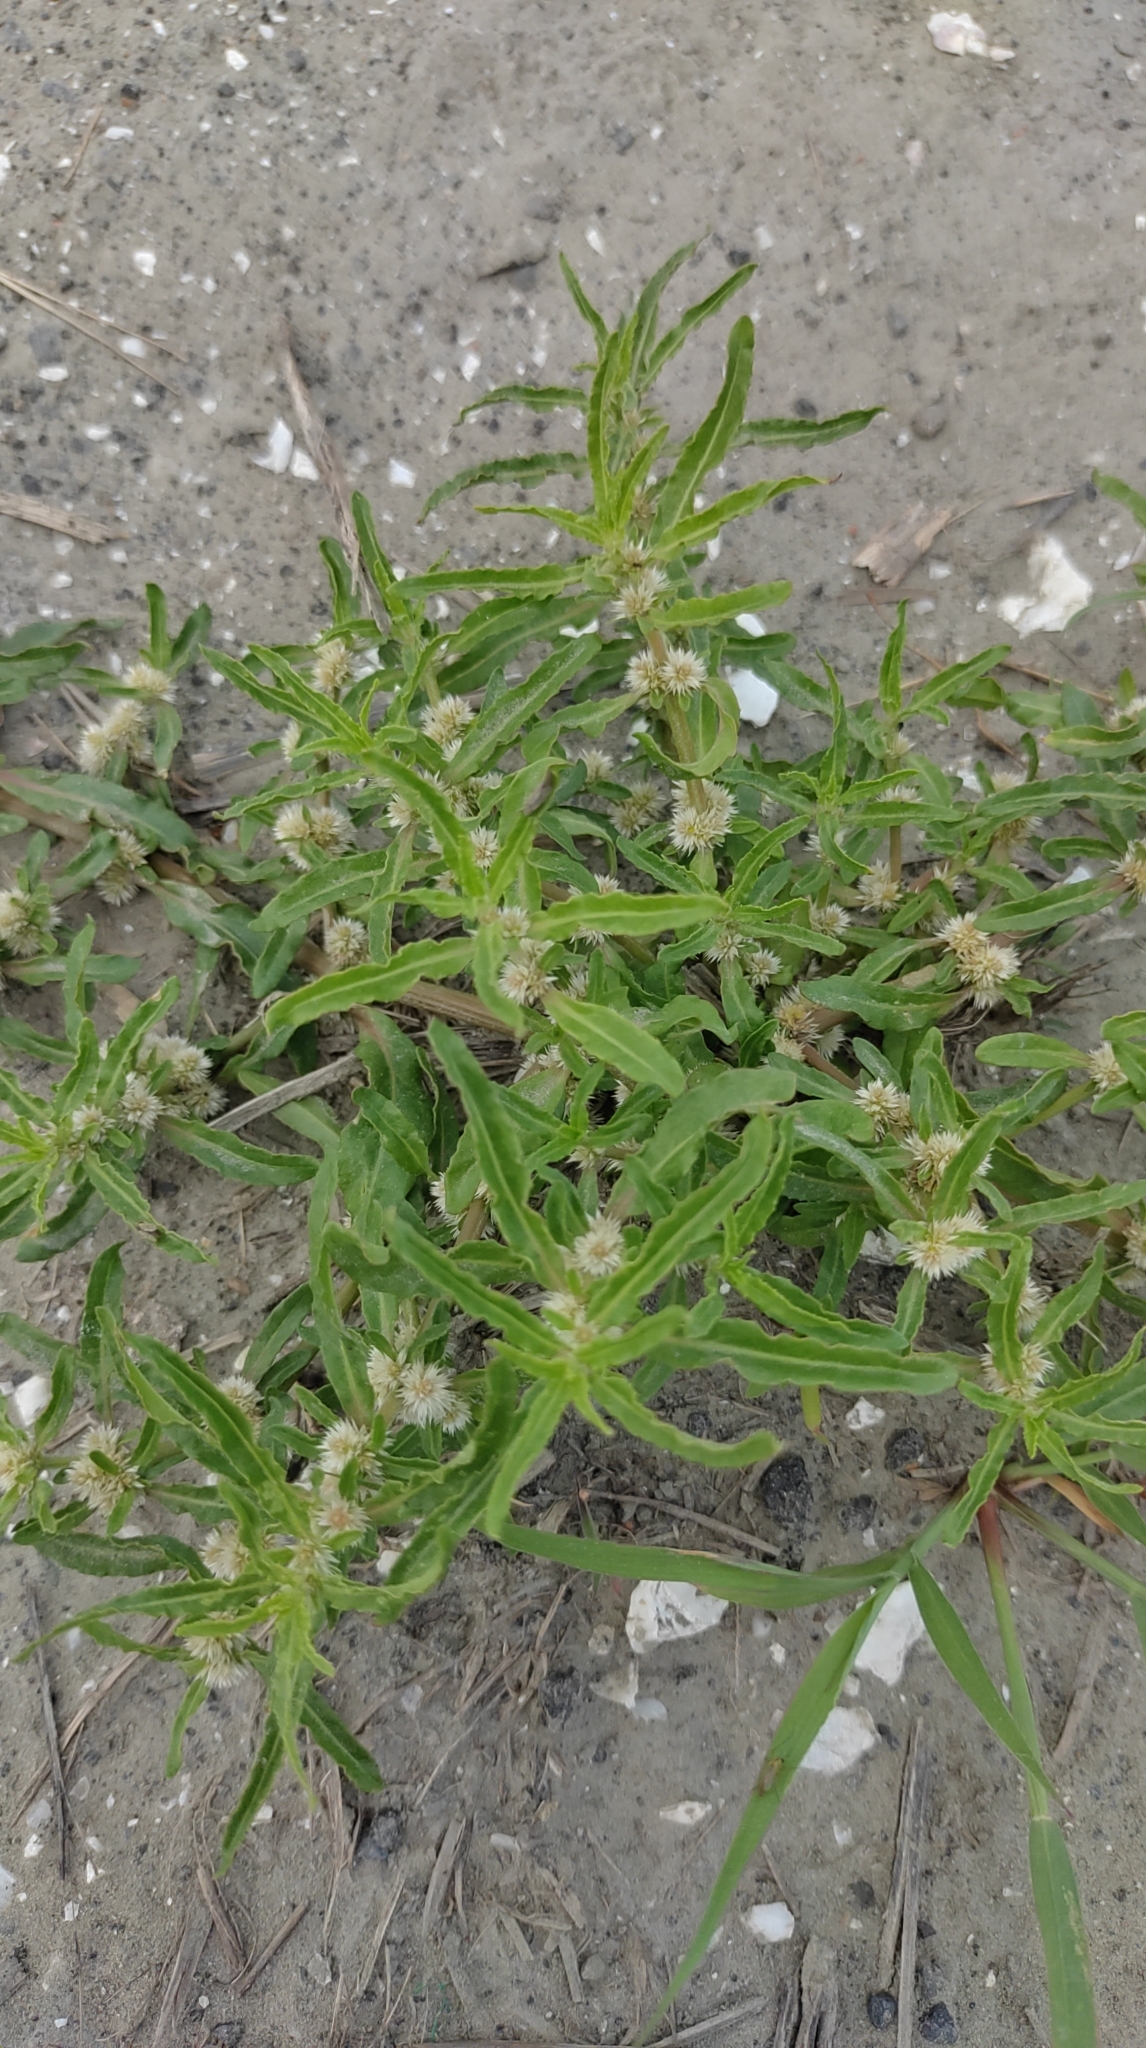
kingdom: Plantae
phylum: Tracheophyta
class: Magnoliopsida
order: Caryophyllales
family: Amaranthaceae
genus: Alternanthera
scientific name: Alternanthera sessilis
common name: Sessile joyweed
